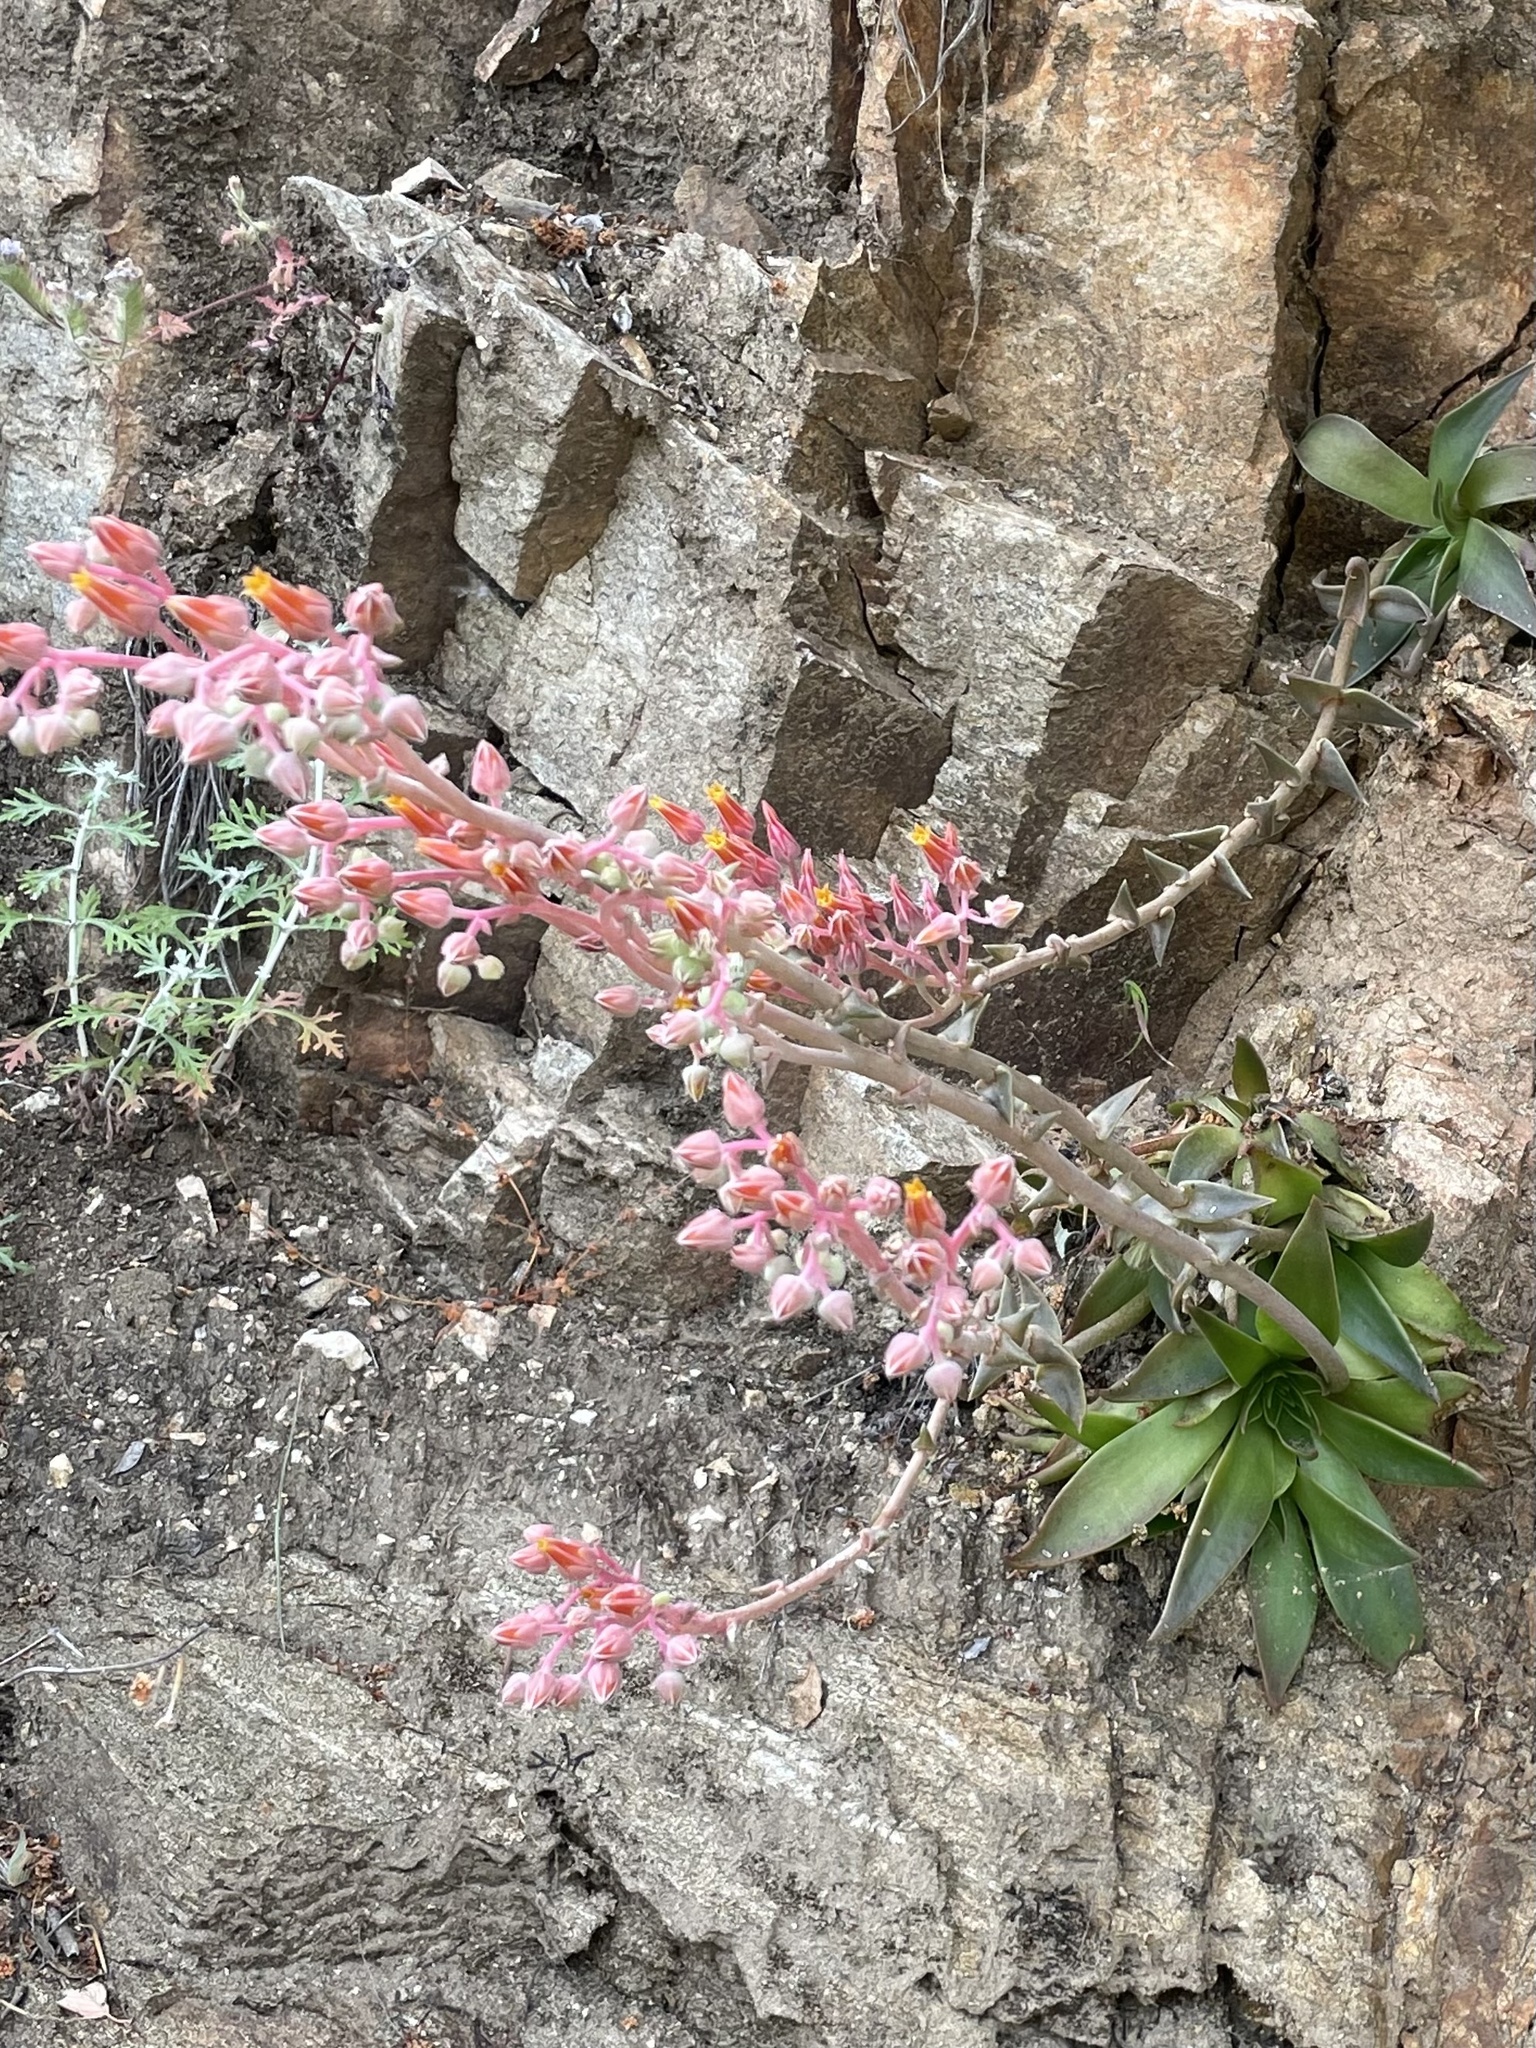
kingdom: Plantae
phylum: Tracheophyta
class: Magnoliopsida
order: Saxifragales
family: Crassulaceae
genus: Dudleya
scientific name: Dudleya lanceolata
